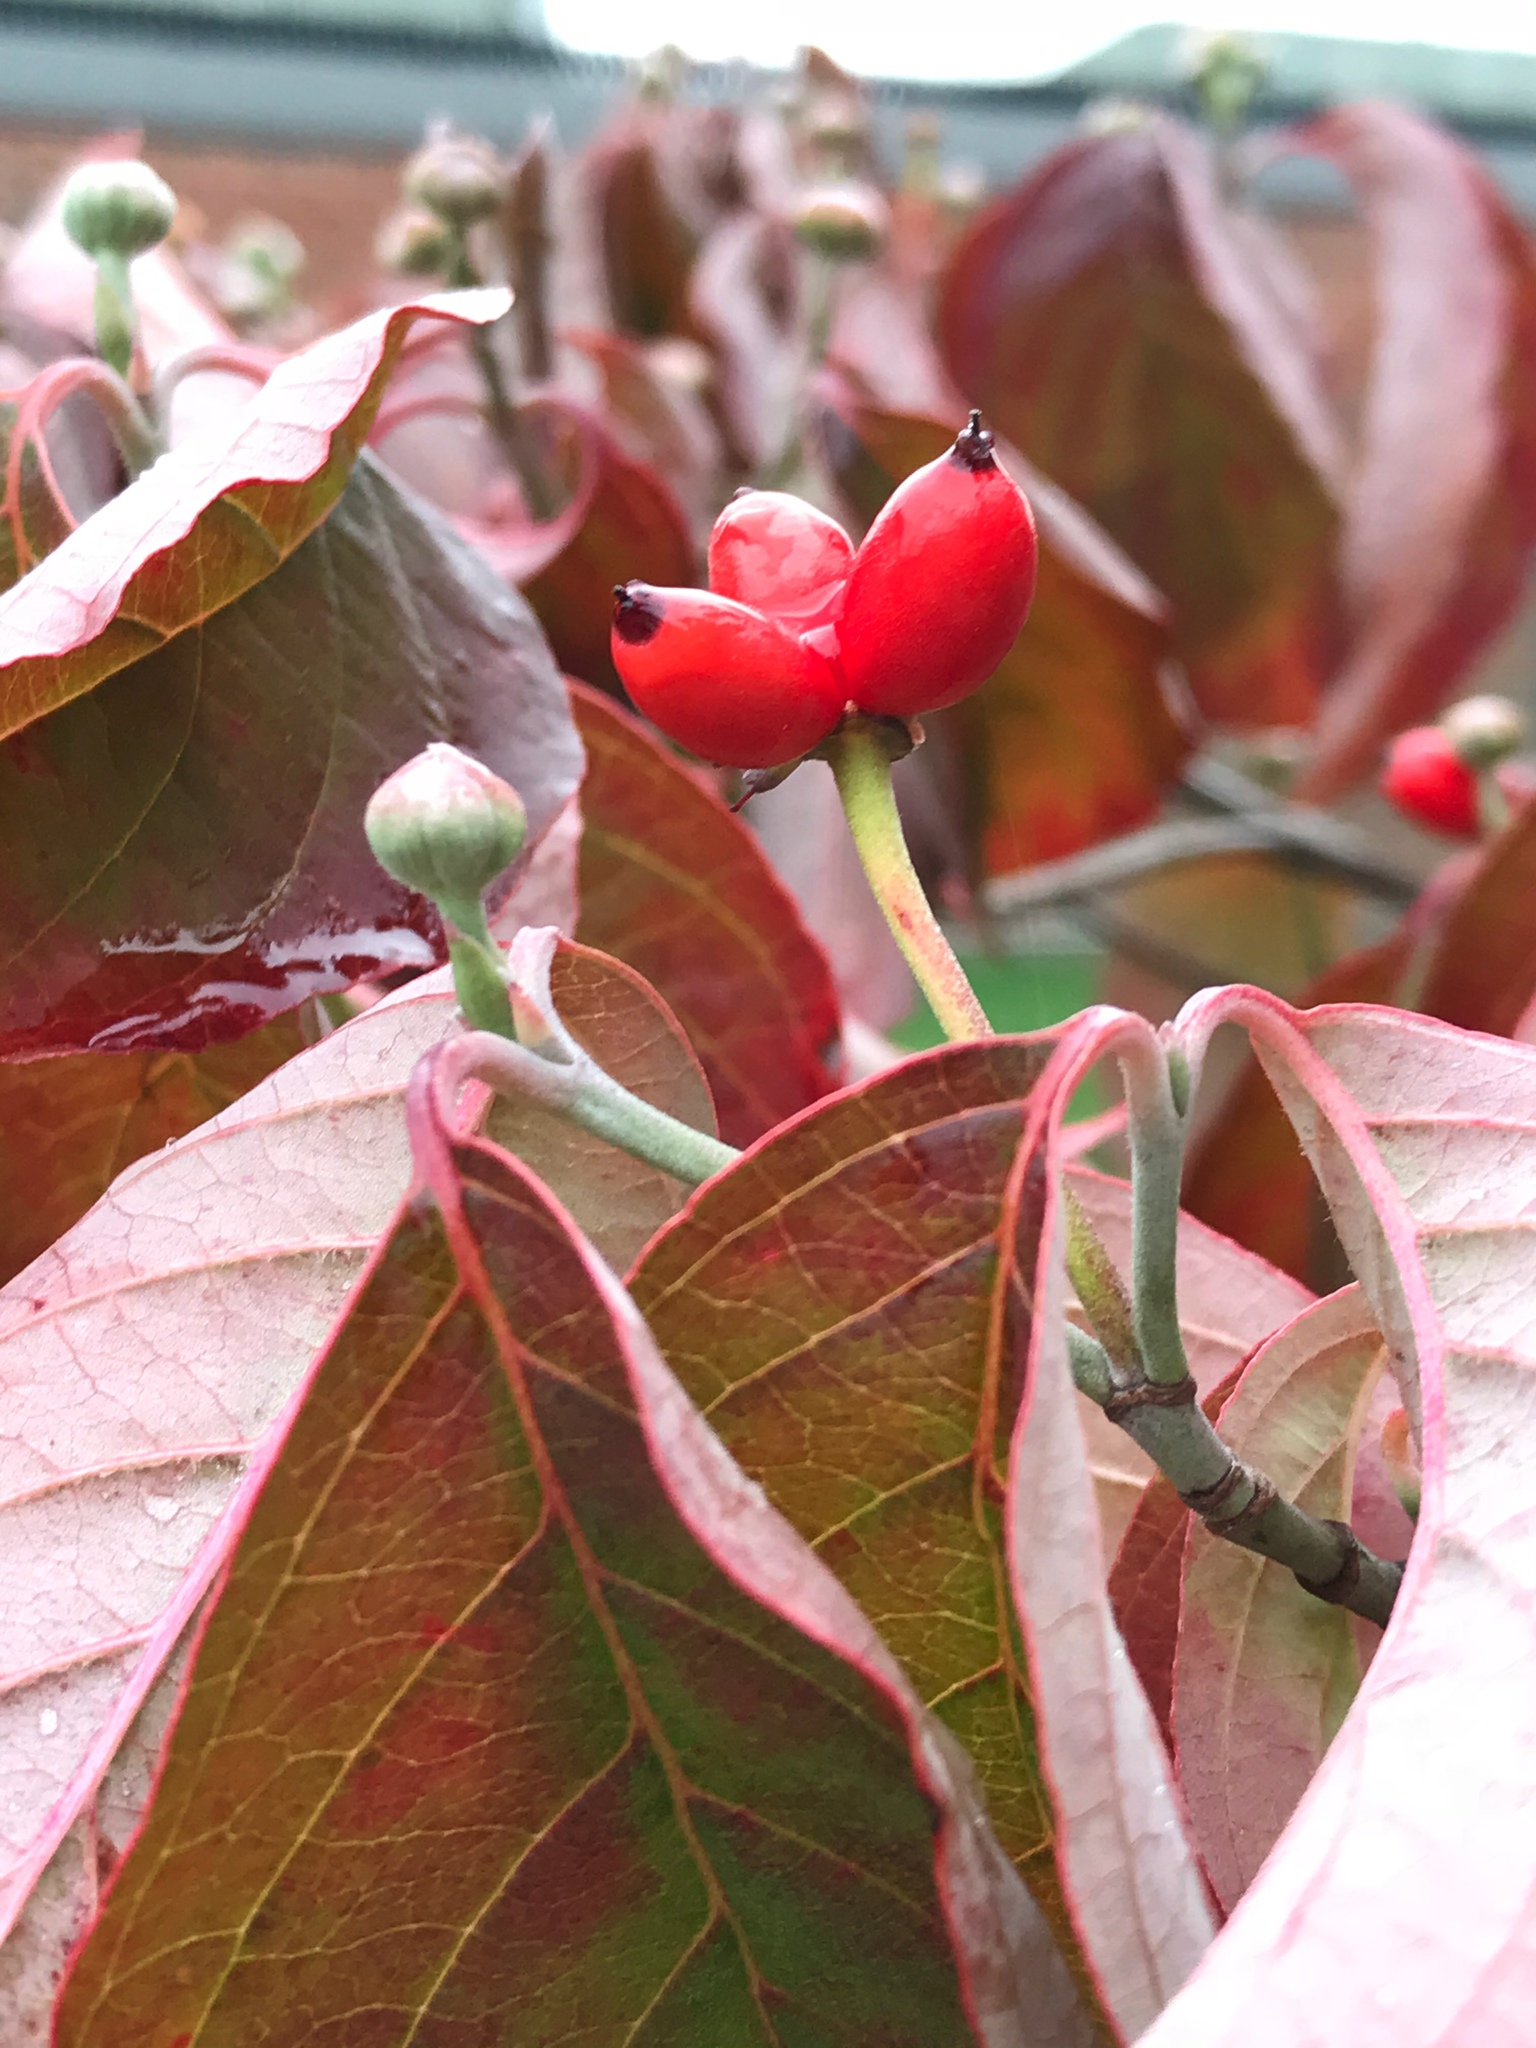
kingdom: Plantae
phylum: Tracheophyta
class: Magnoliopsida
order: Cornales
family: Cornaceae
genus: Cornus
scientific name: Cornus florida
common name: Flowering dogwood
